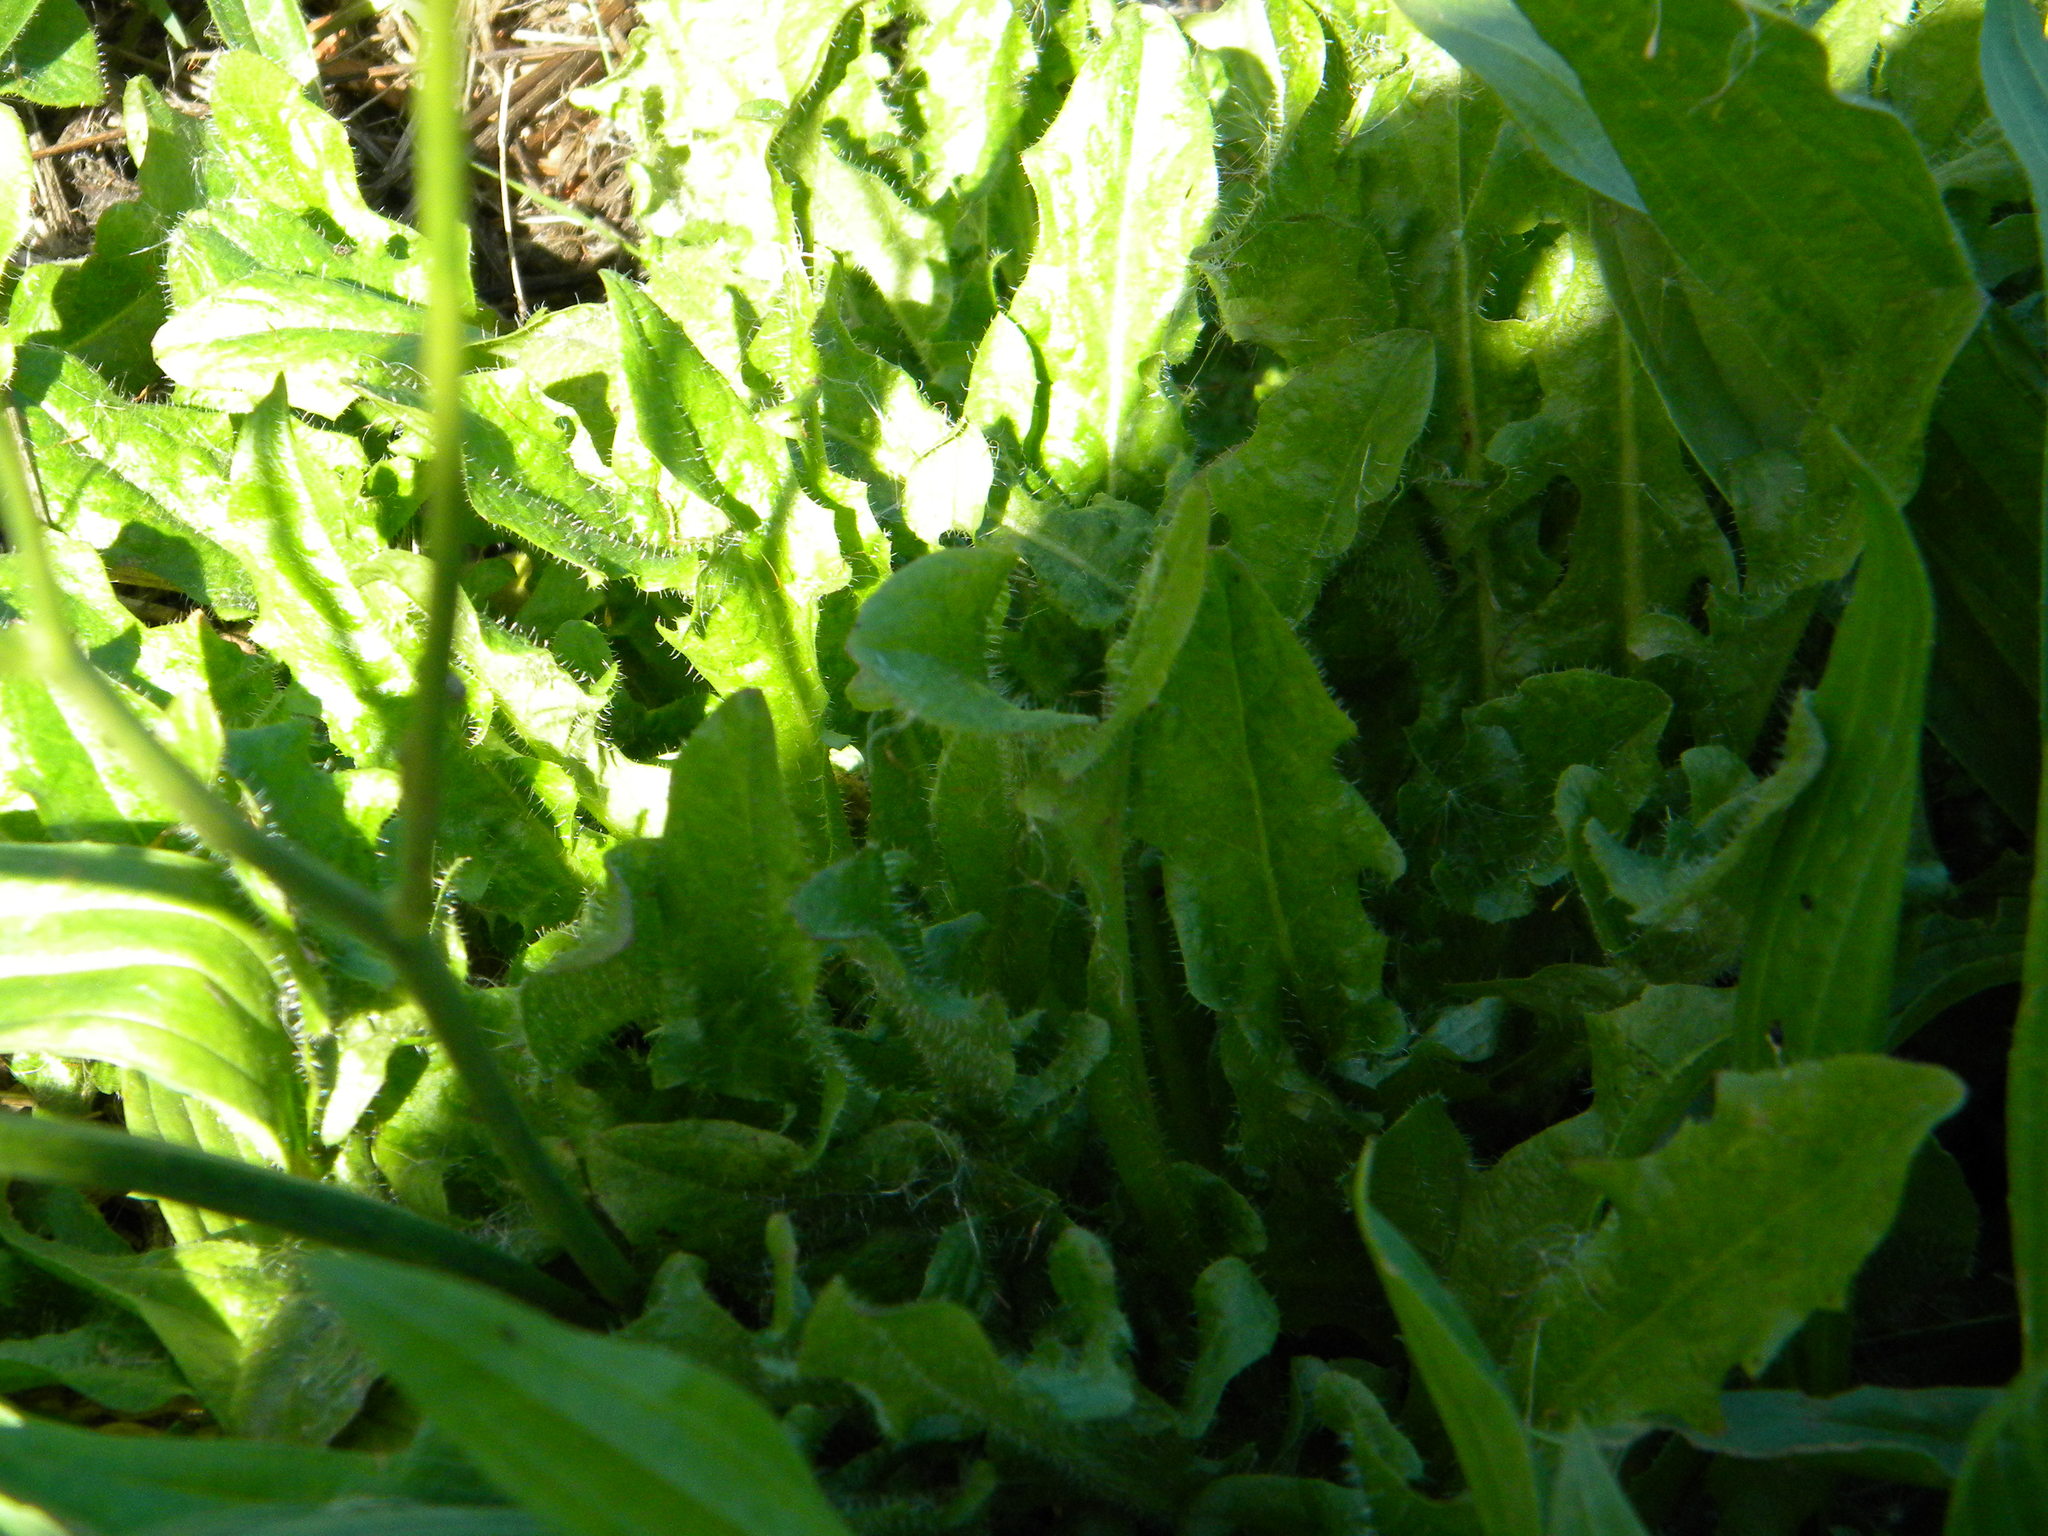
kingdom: Plantae
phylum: Tracheophyta
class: Magnoliopsida
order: Asterales
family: Asteraceae
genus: Hypochaeris
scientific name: Hypochaeris radicata
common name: Flatweed
